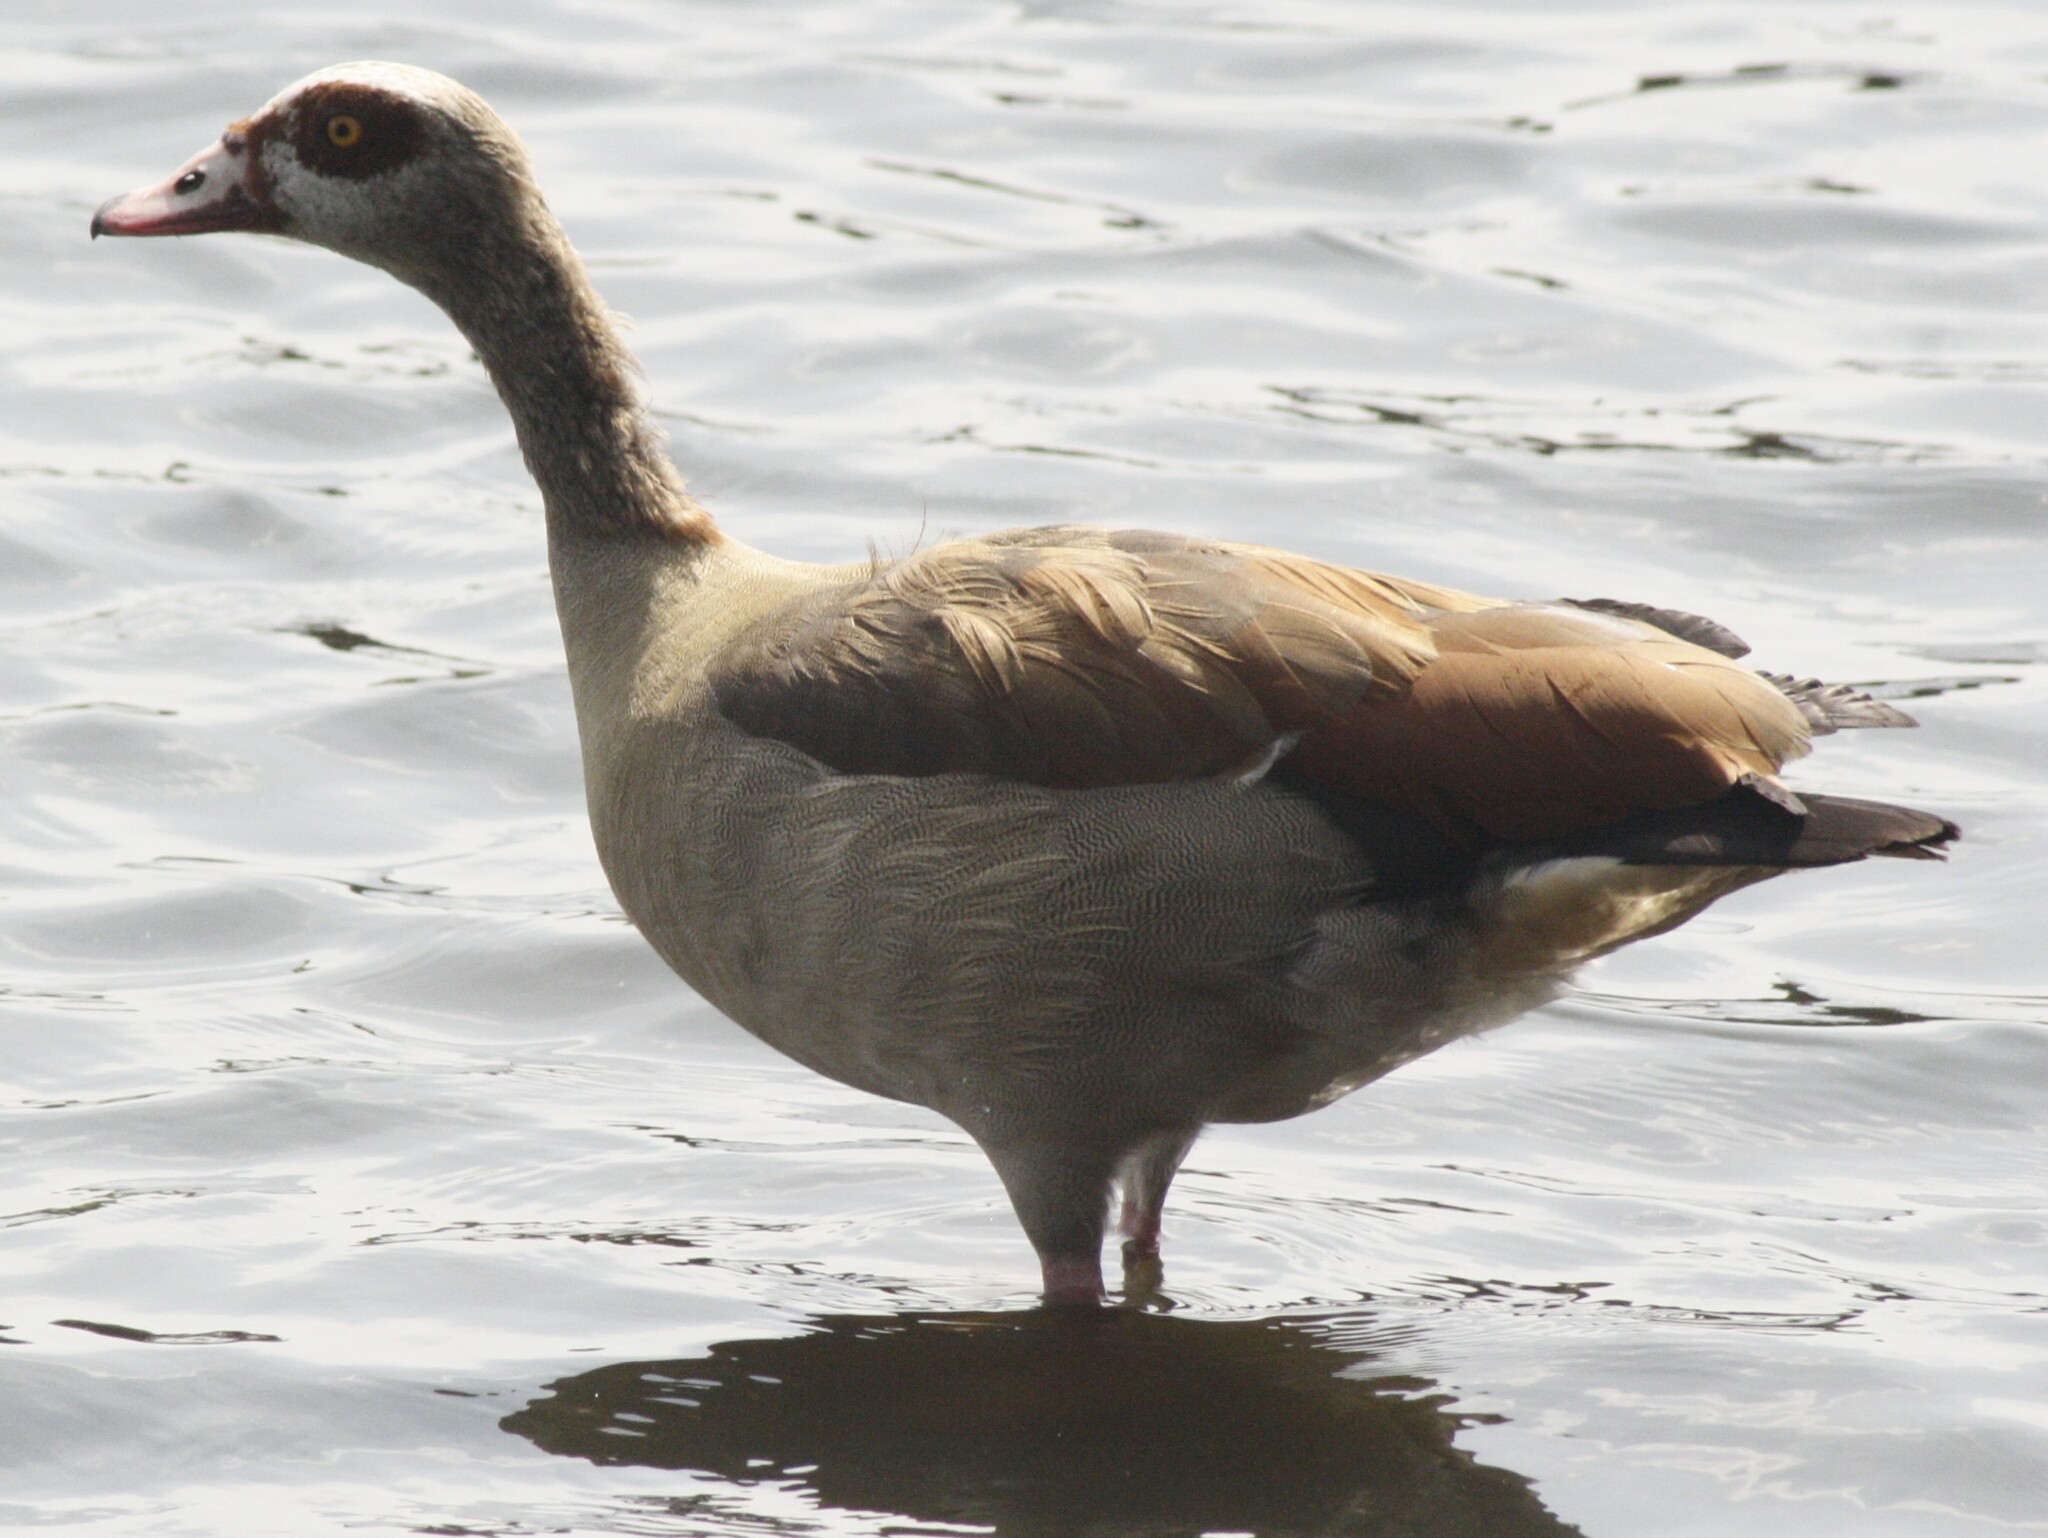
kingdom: Animalia
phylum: Chordata
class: Aves
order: Anseriformes
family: Anatidae
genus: Alopochen
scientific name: Alopochen aegyptiaca
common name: Egyptian goose
